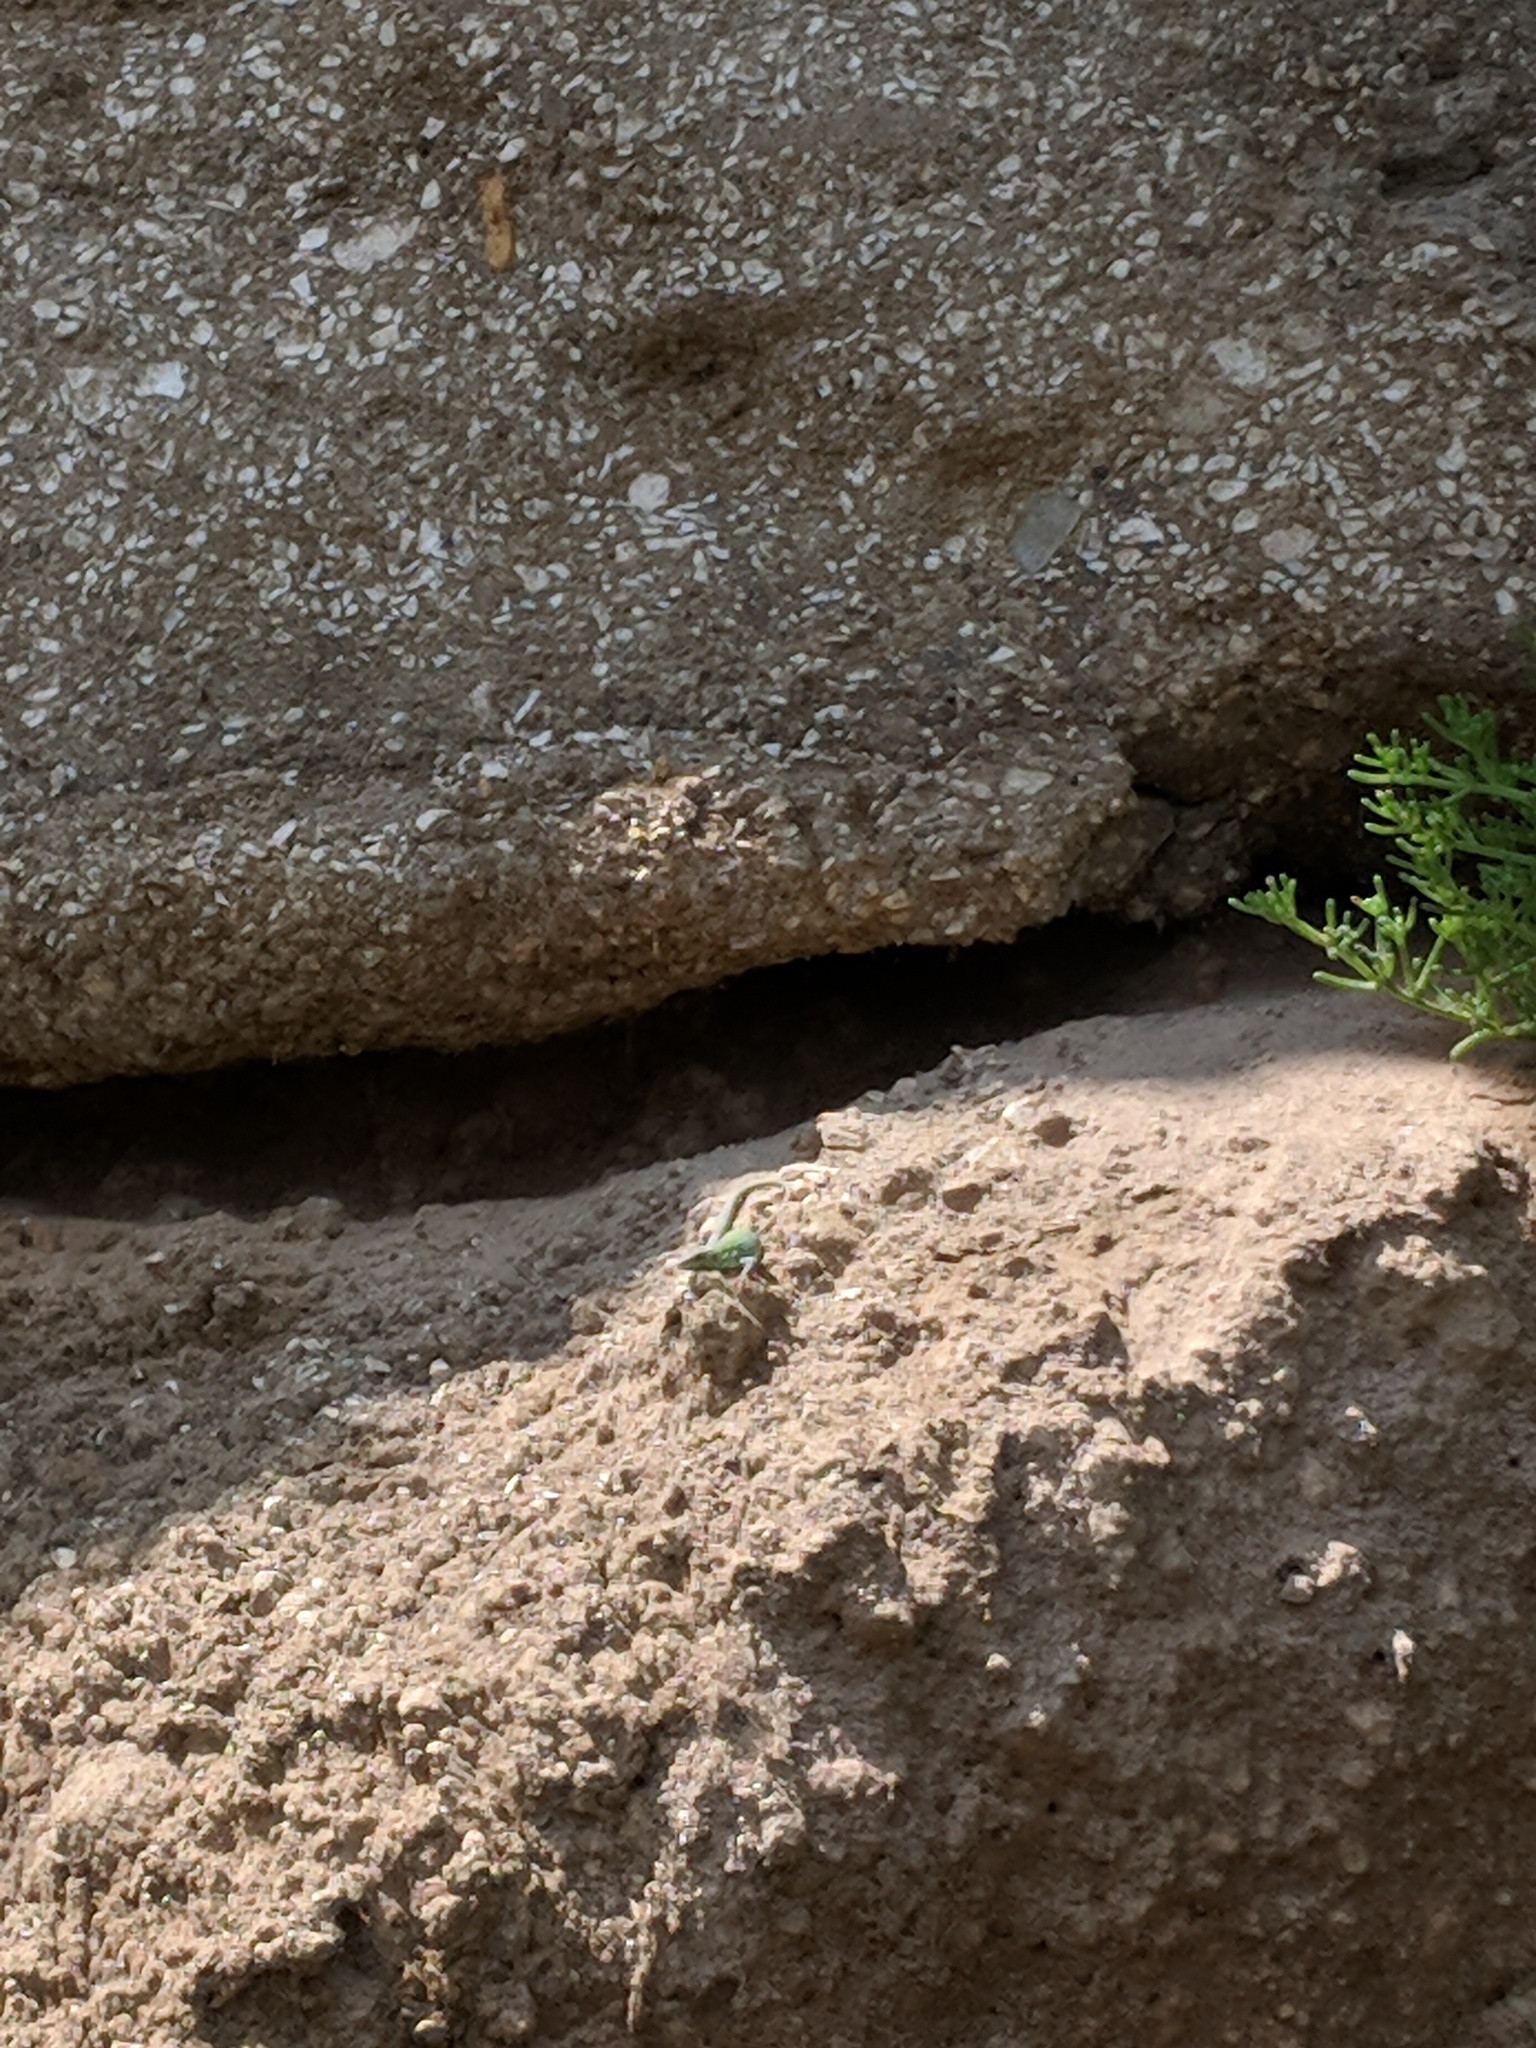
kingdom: Animalia
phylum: Chordata
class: Squamata
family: Lacertidae
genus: Podarcis
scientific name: Podarcis siculus
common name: Italian wall lizard
